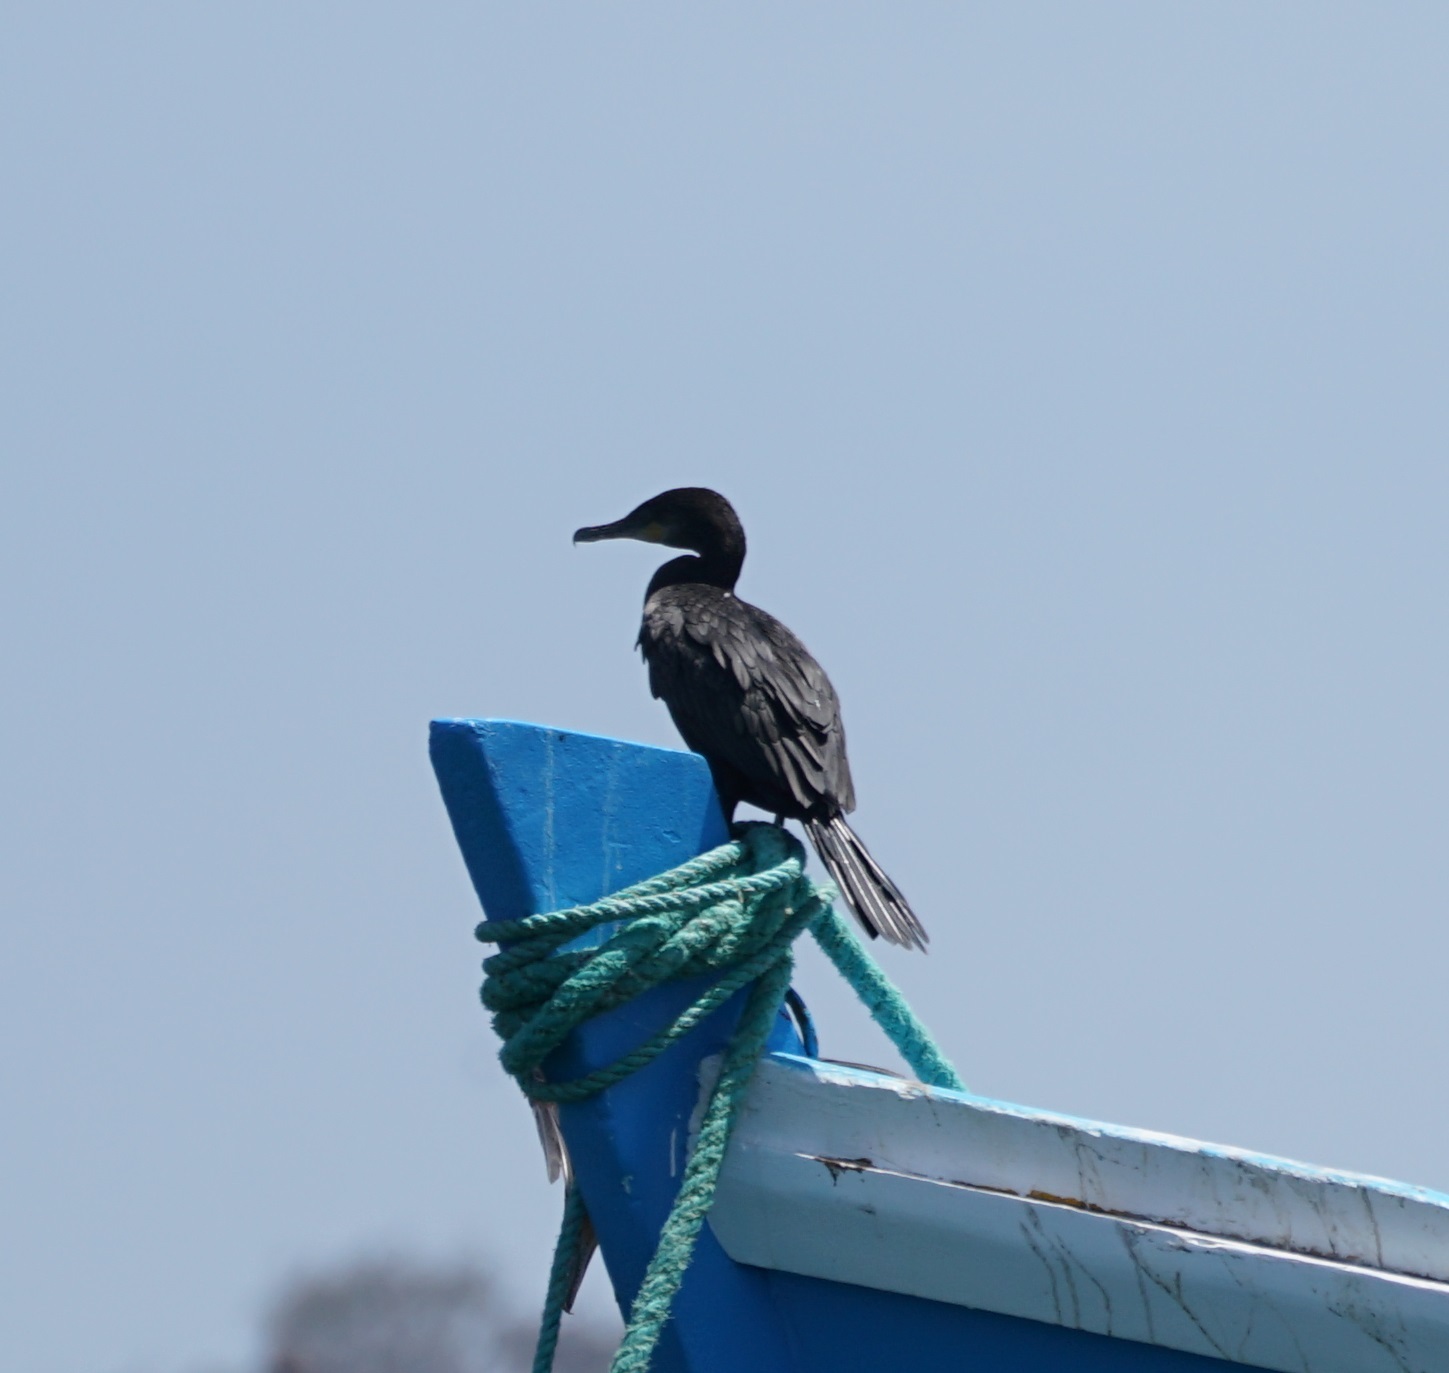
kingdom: Animalia
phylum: Chordata
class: Aves
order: Suliformes
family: Phalacrocoracidae
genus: Phalacrocorax
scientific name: Phalacrocorax brasilianus
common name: Neotropic cormorant
